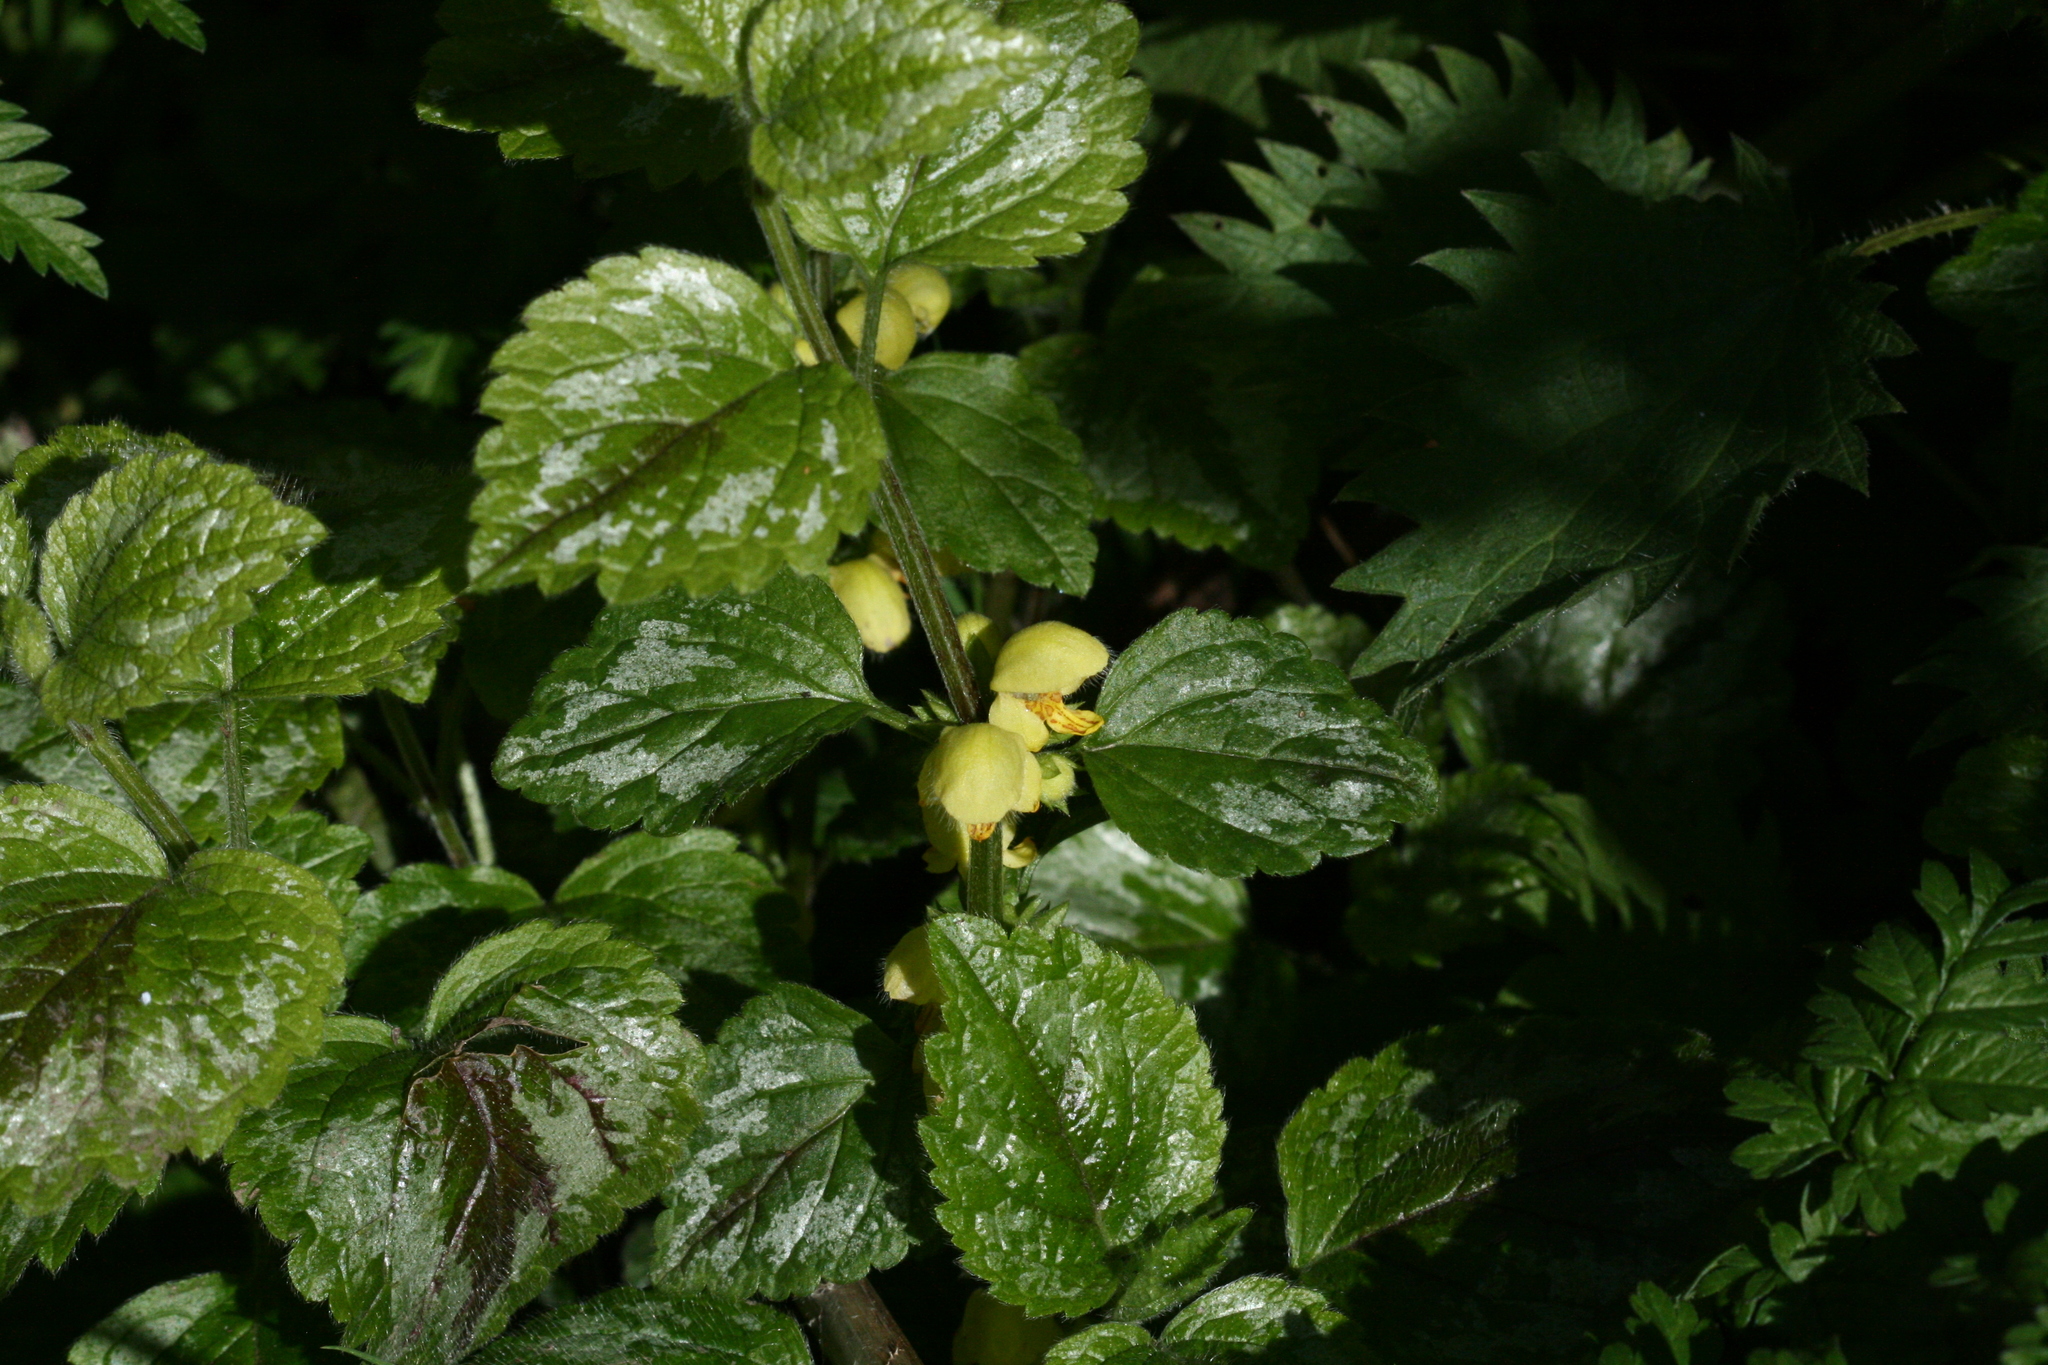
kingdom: Plantae
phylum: Tracheophyta
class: Magnoliopsida
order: Lamiales
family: Lamiaceae
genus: Lamium
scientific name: Lamium galeobdolon
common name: Yellow archangel
